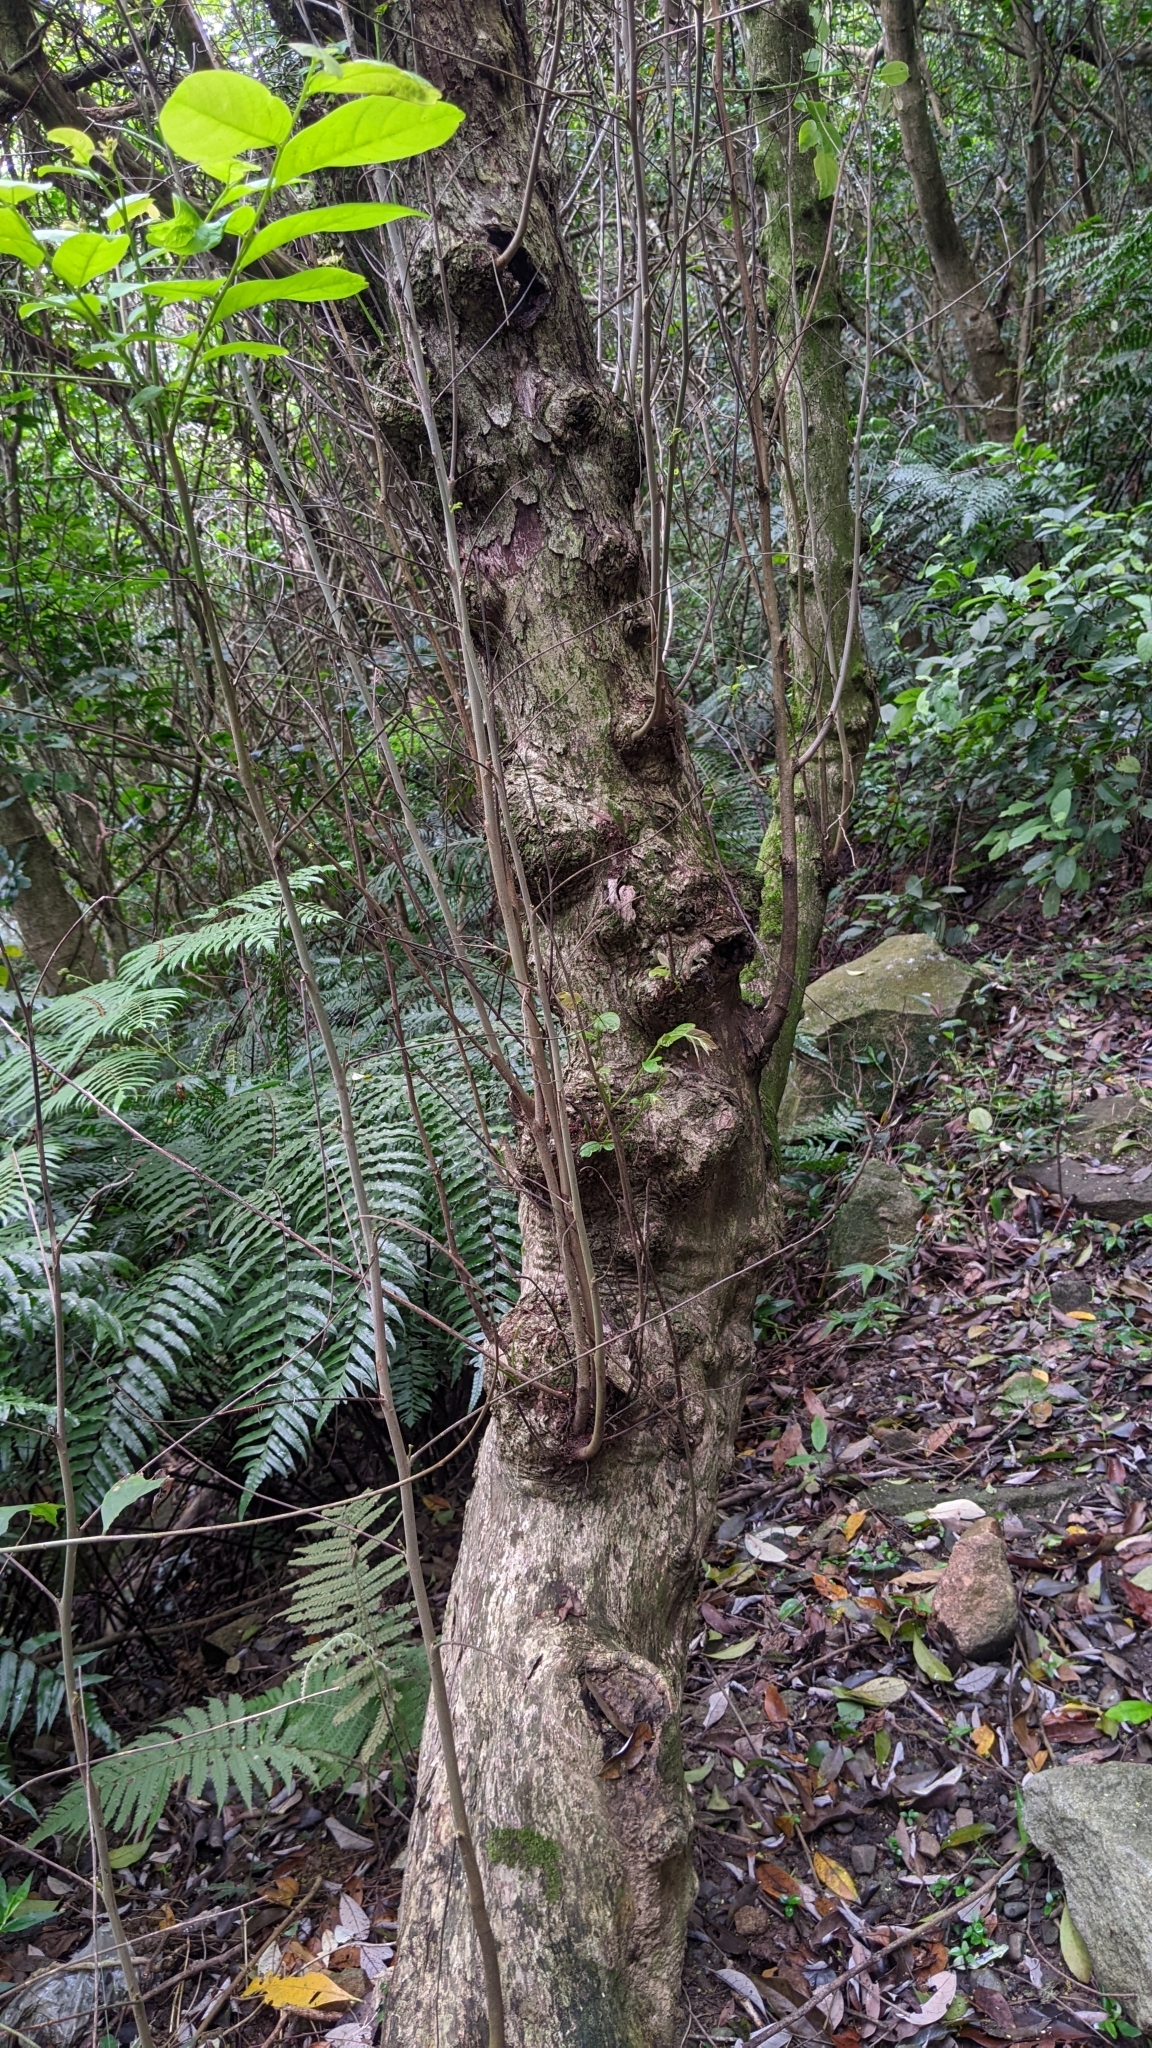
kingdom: Plantae
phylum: Tracheophyta
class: Magnoliopsida
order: Malpighiales
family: Phyllanthaceae
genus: Glochidion
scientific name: Glochidion acuminatum
